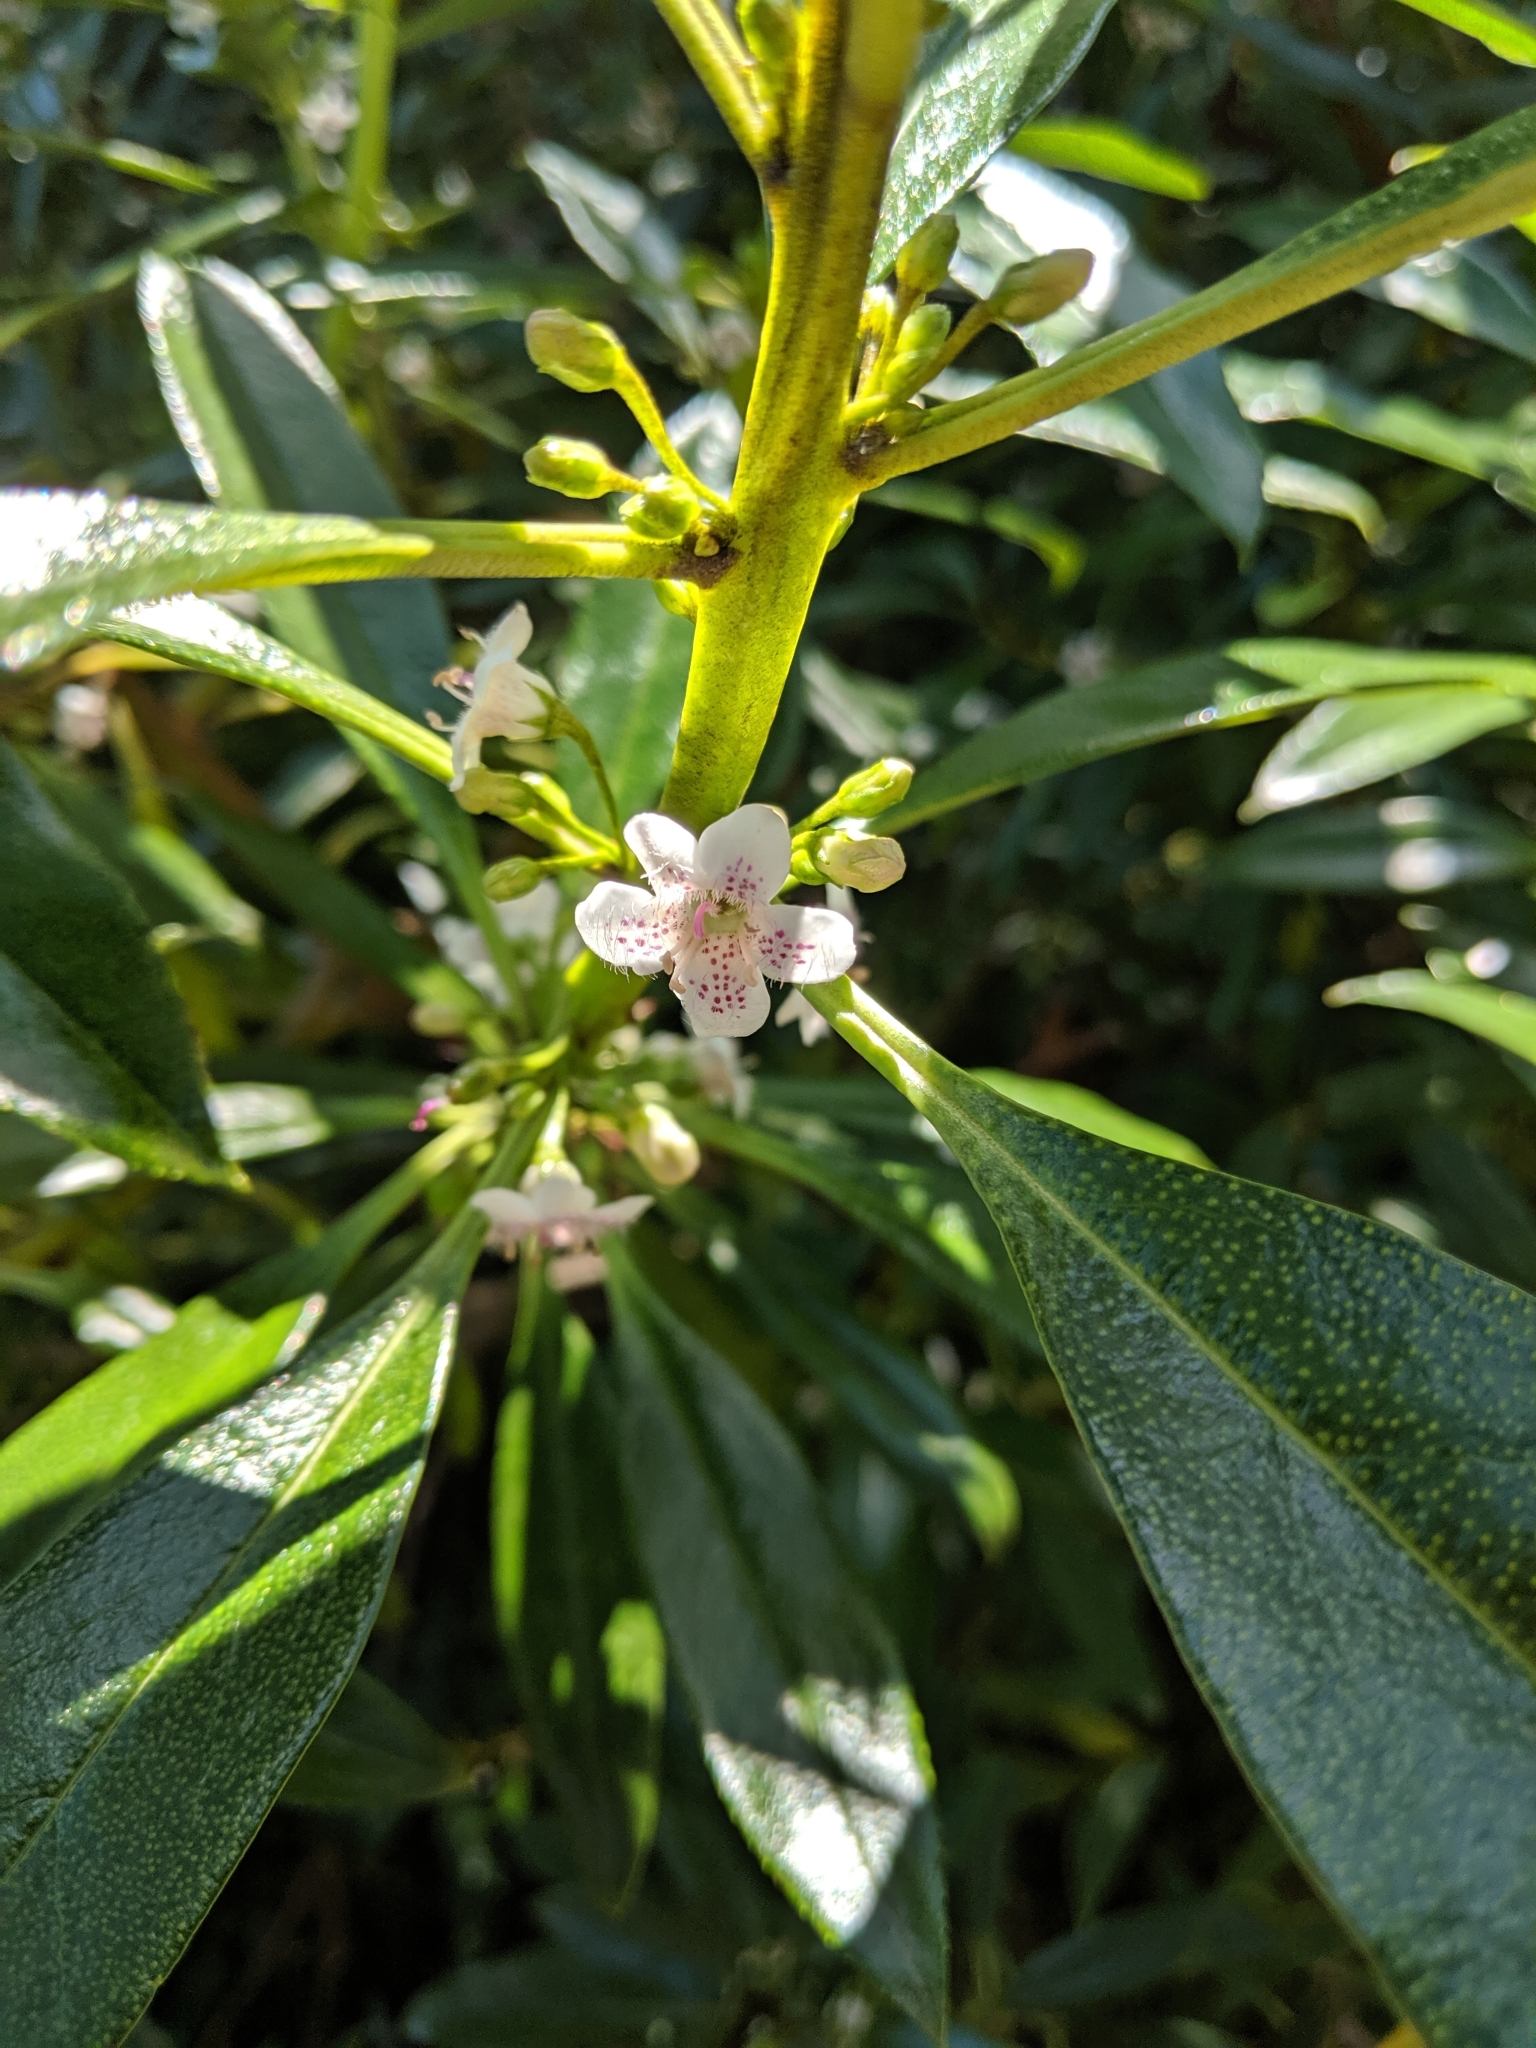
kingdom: Plantae
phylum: Tracheophyta
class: Magnoliopsida
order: Lamiales
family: Scrophulariaceae
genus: Myoporum
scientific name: Myoporum laetum
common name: Ngaio tree
